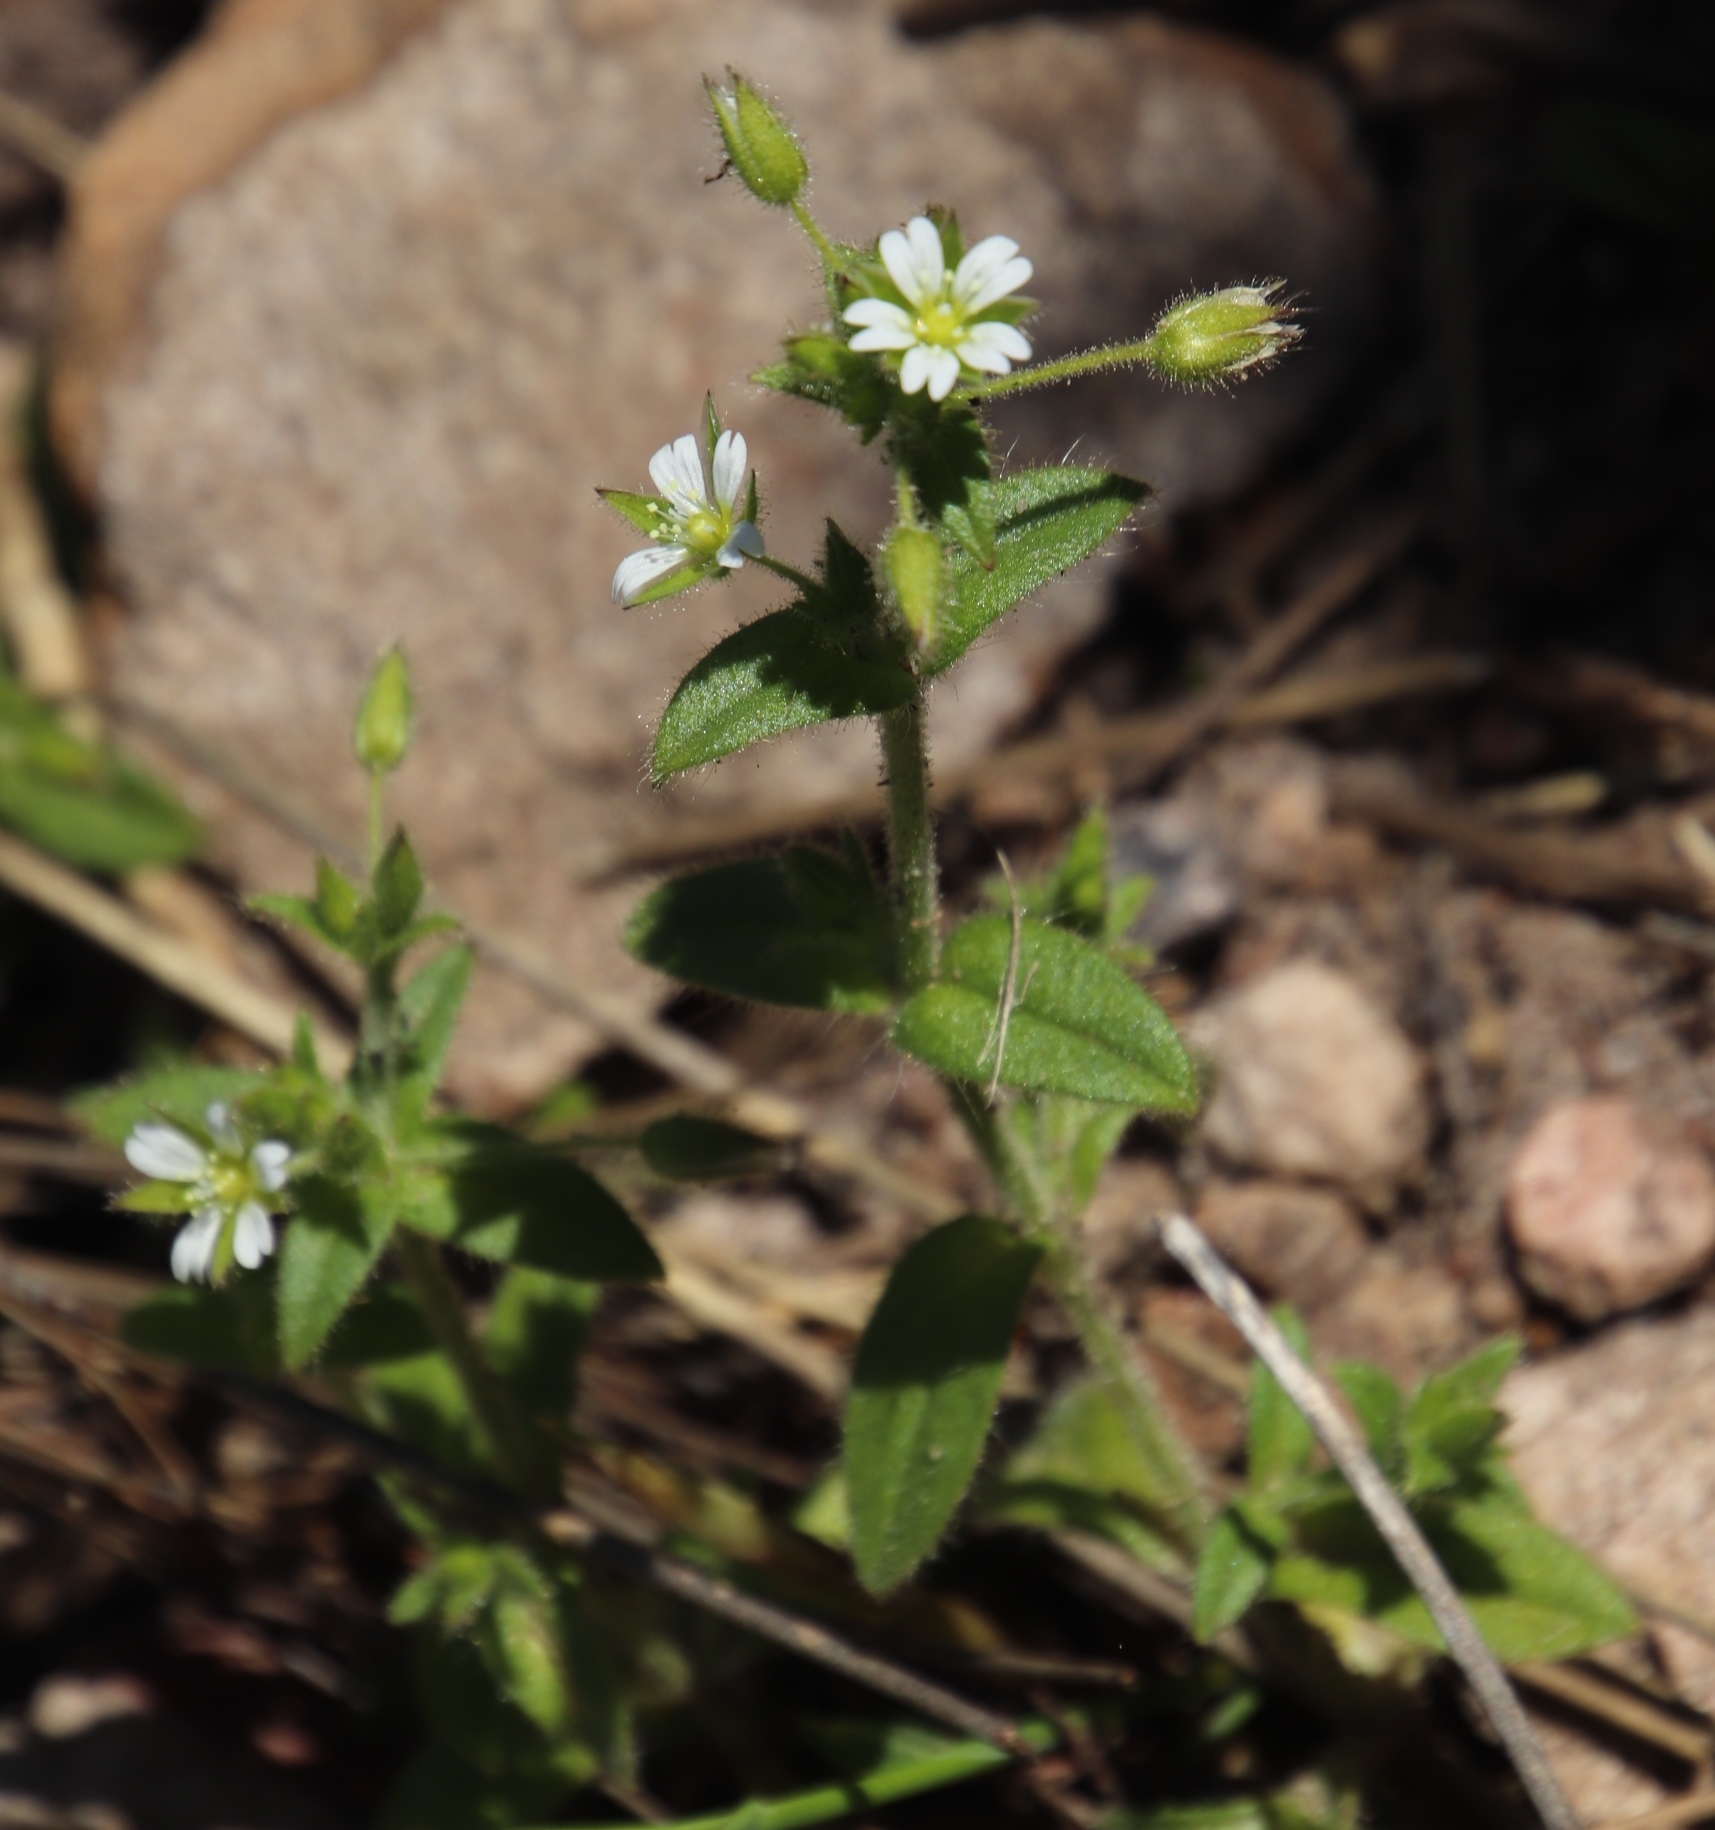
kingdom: Plantae
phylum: Tracheophyta
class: Magnoliopsida
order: Caryophyllales
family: Caryophyllaceae
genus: Cerastium
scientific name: Cerastium capense
